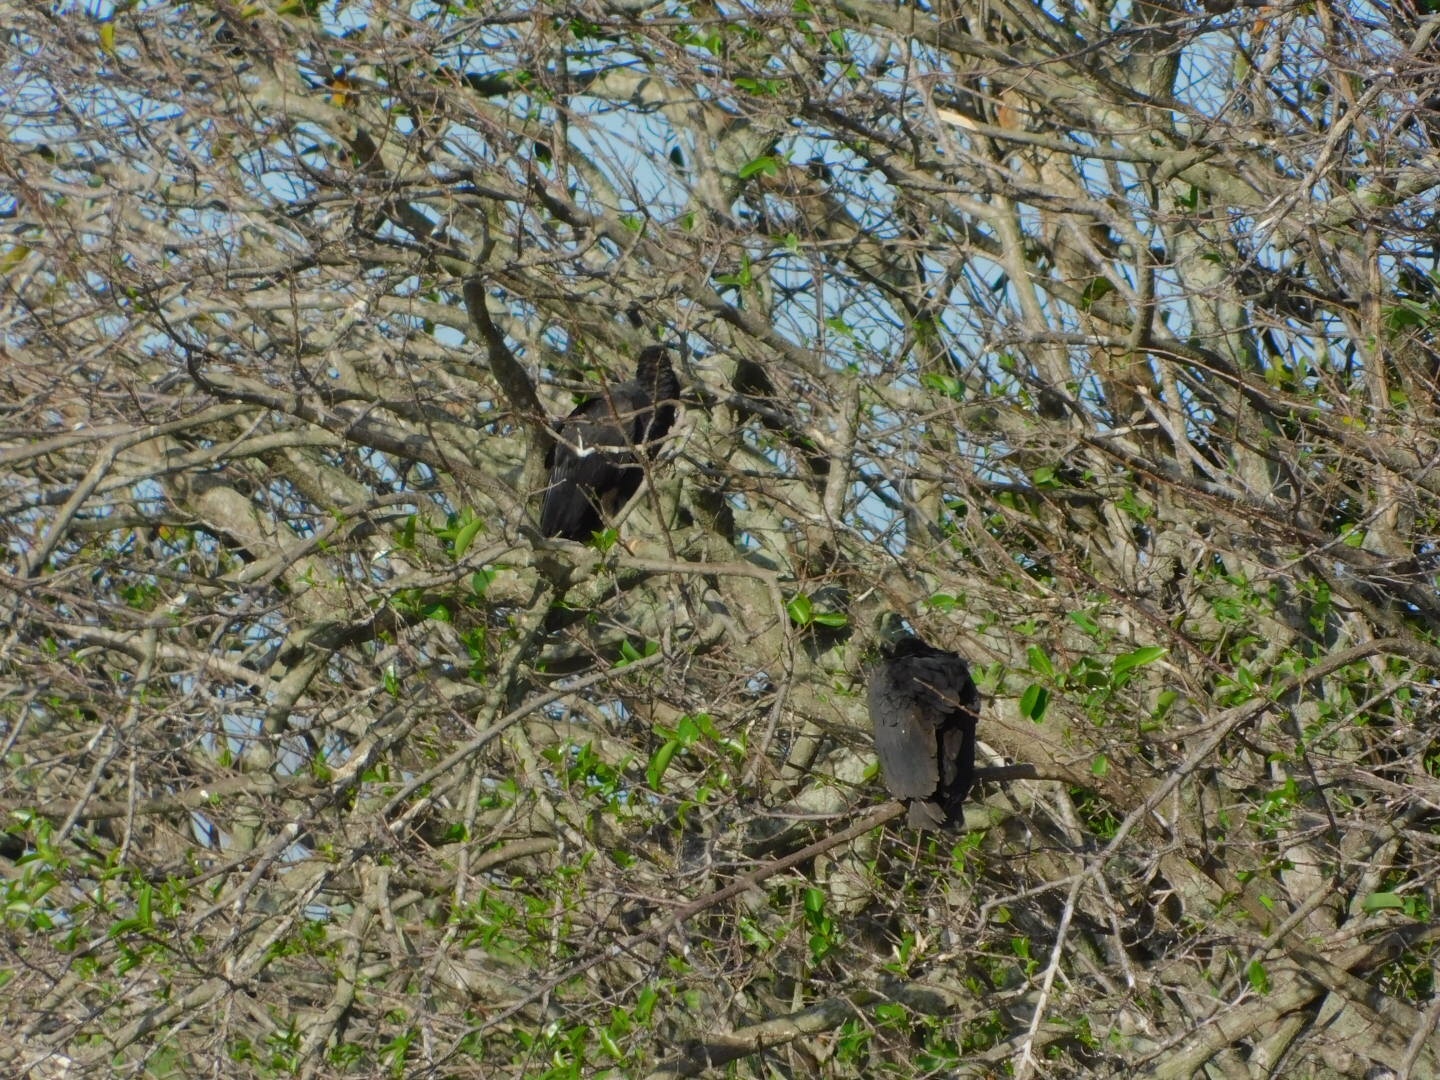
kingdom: Animalia
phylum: Chordata
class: Aves
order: Accipitriformes
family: Cathartidae
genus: Coragyps
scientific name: Coragyps atratus
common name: Black vulture
